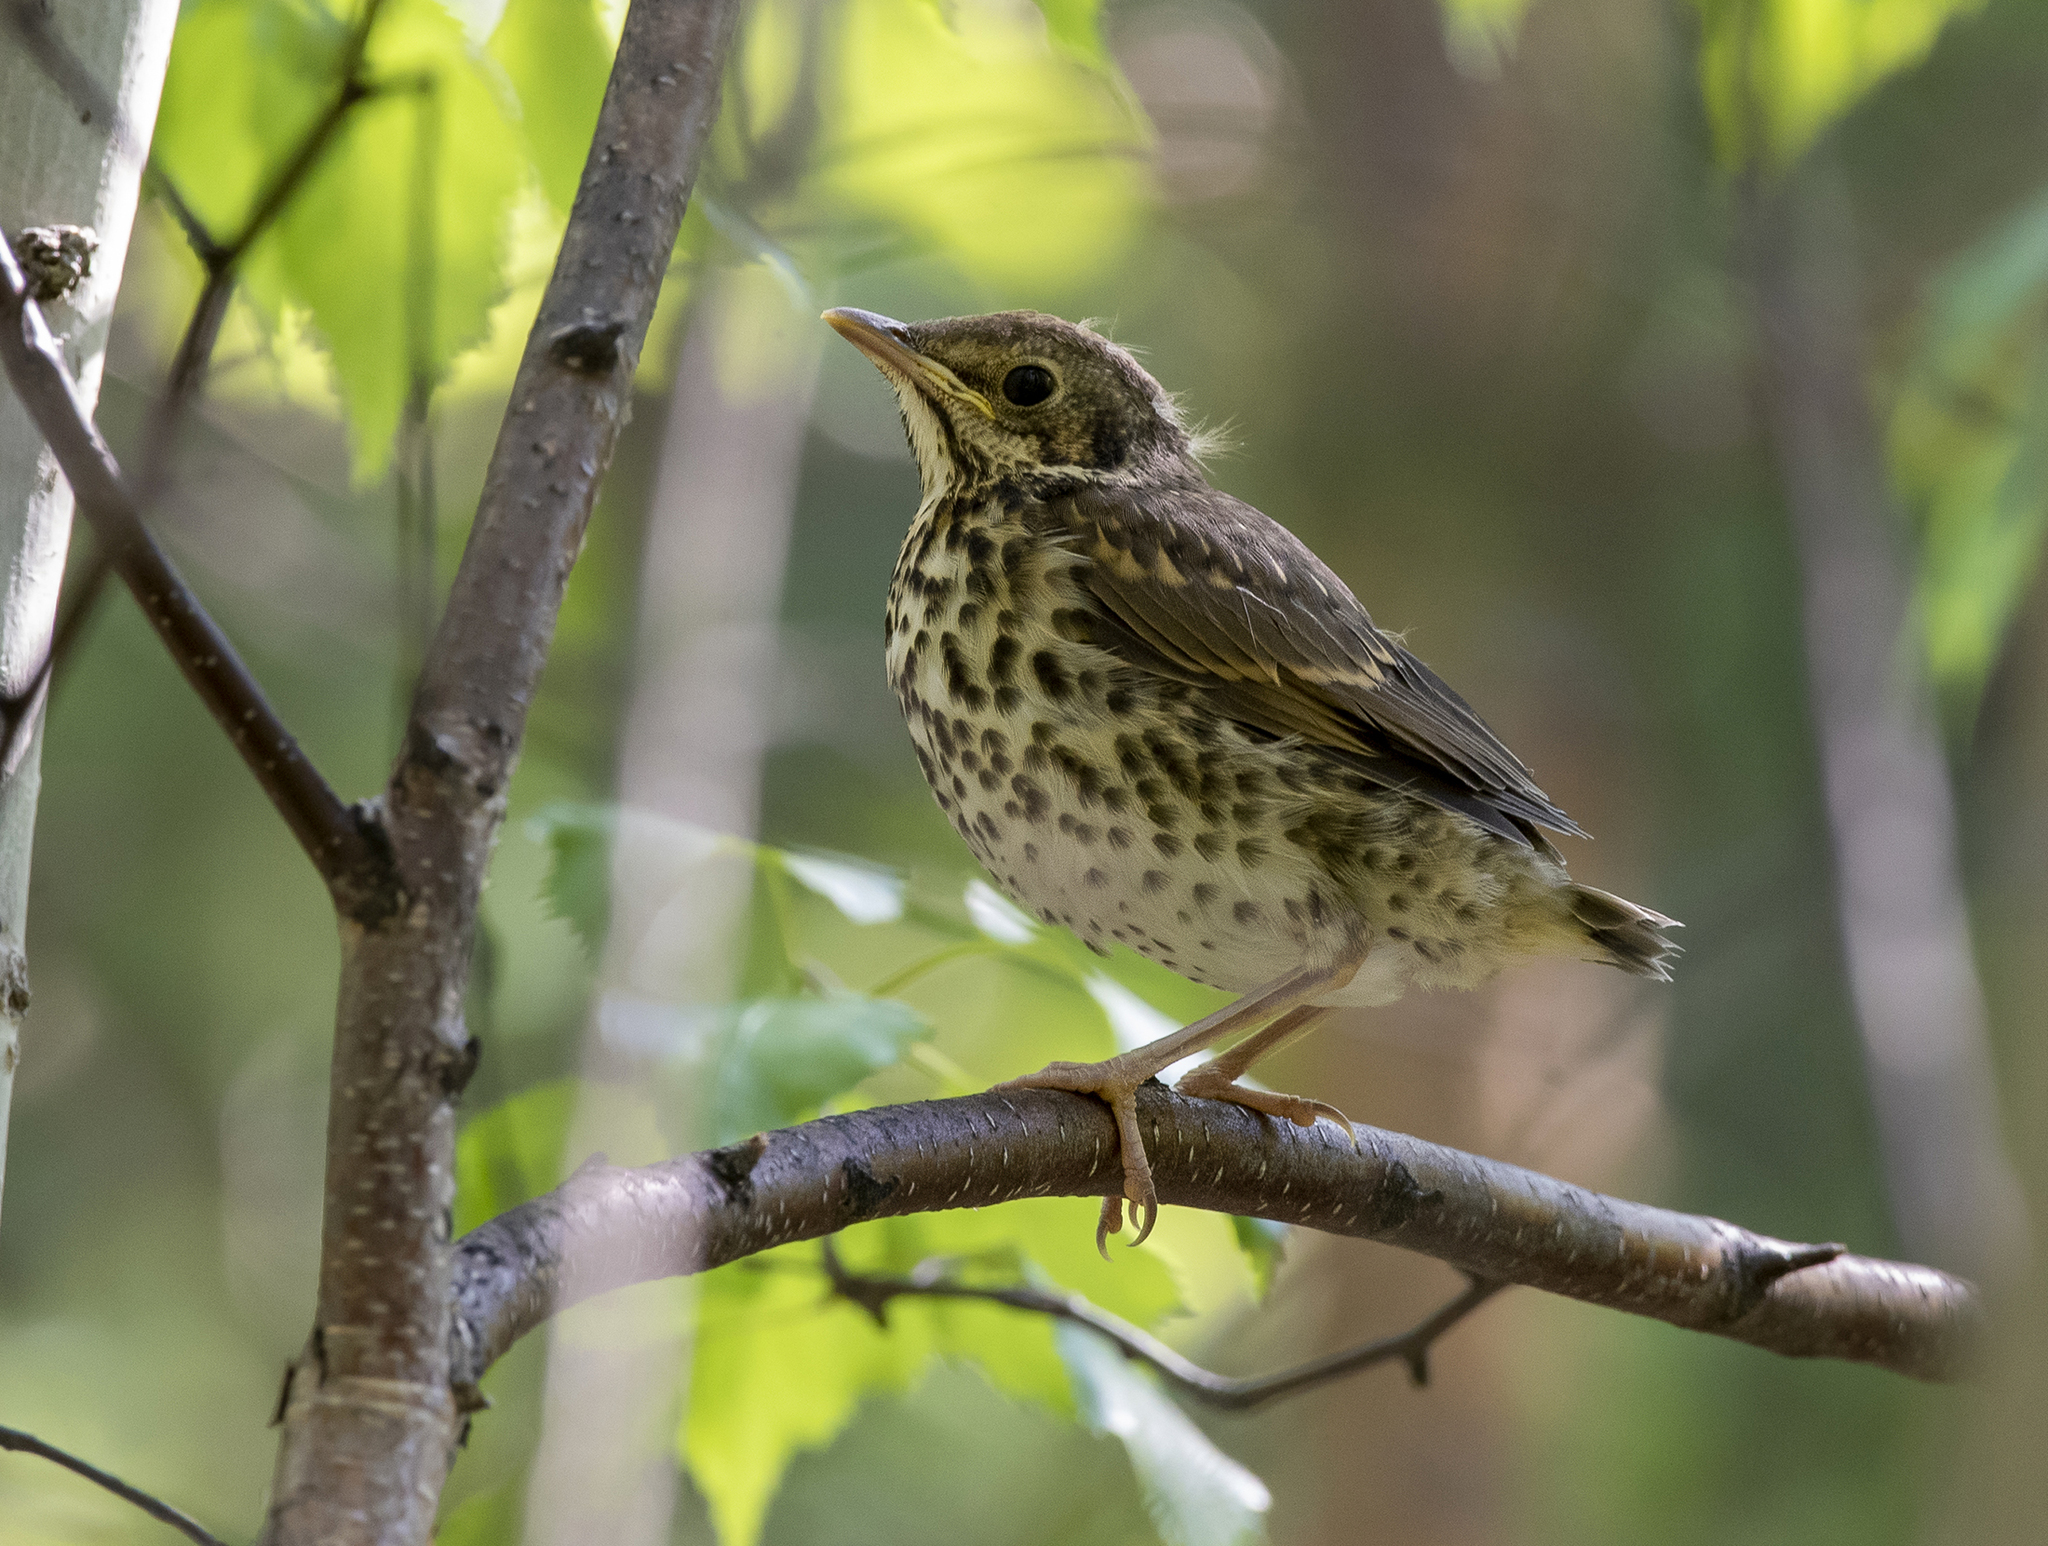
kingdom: Animalia
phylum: Chordata
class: Aves
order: Passeriformes
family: Turdidae
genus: Turdus
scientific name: Turdus philomelos
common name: Song thrush
